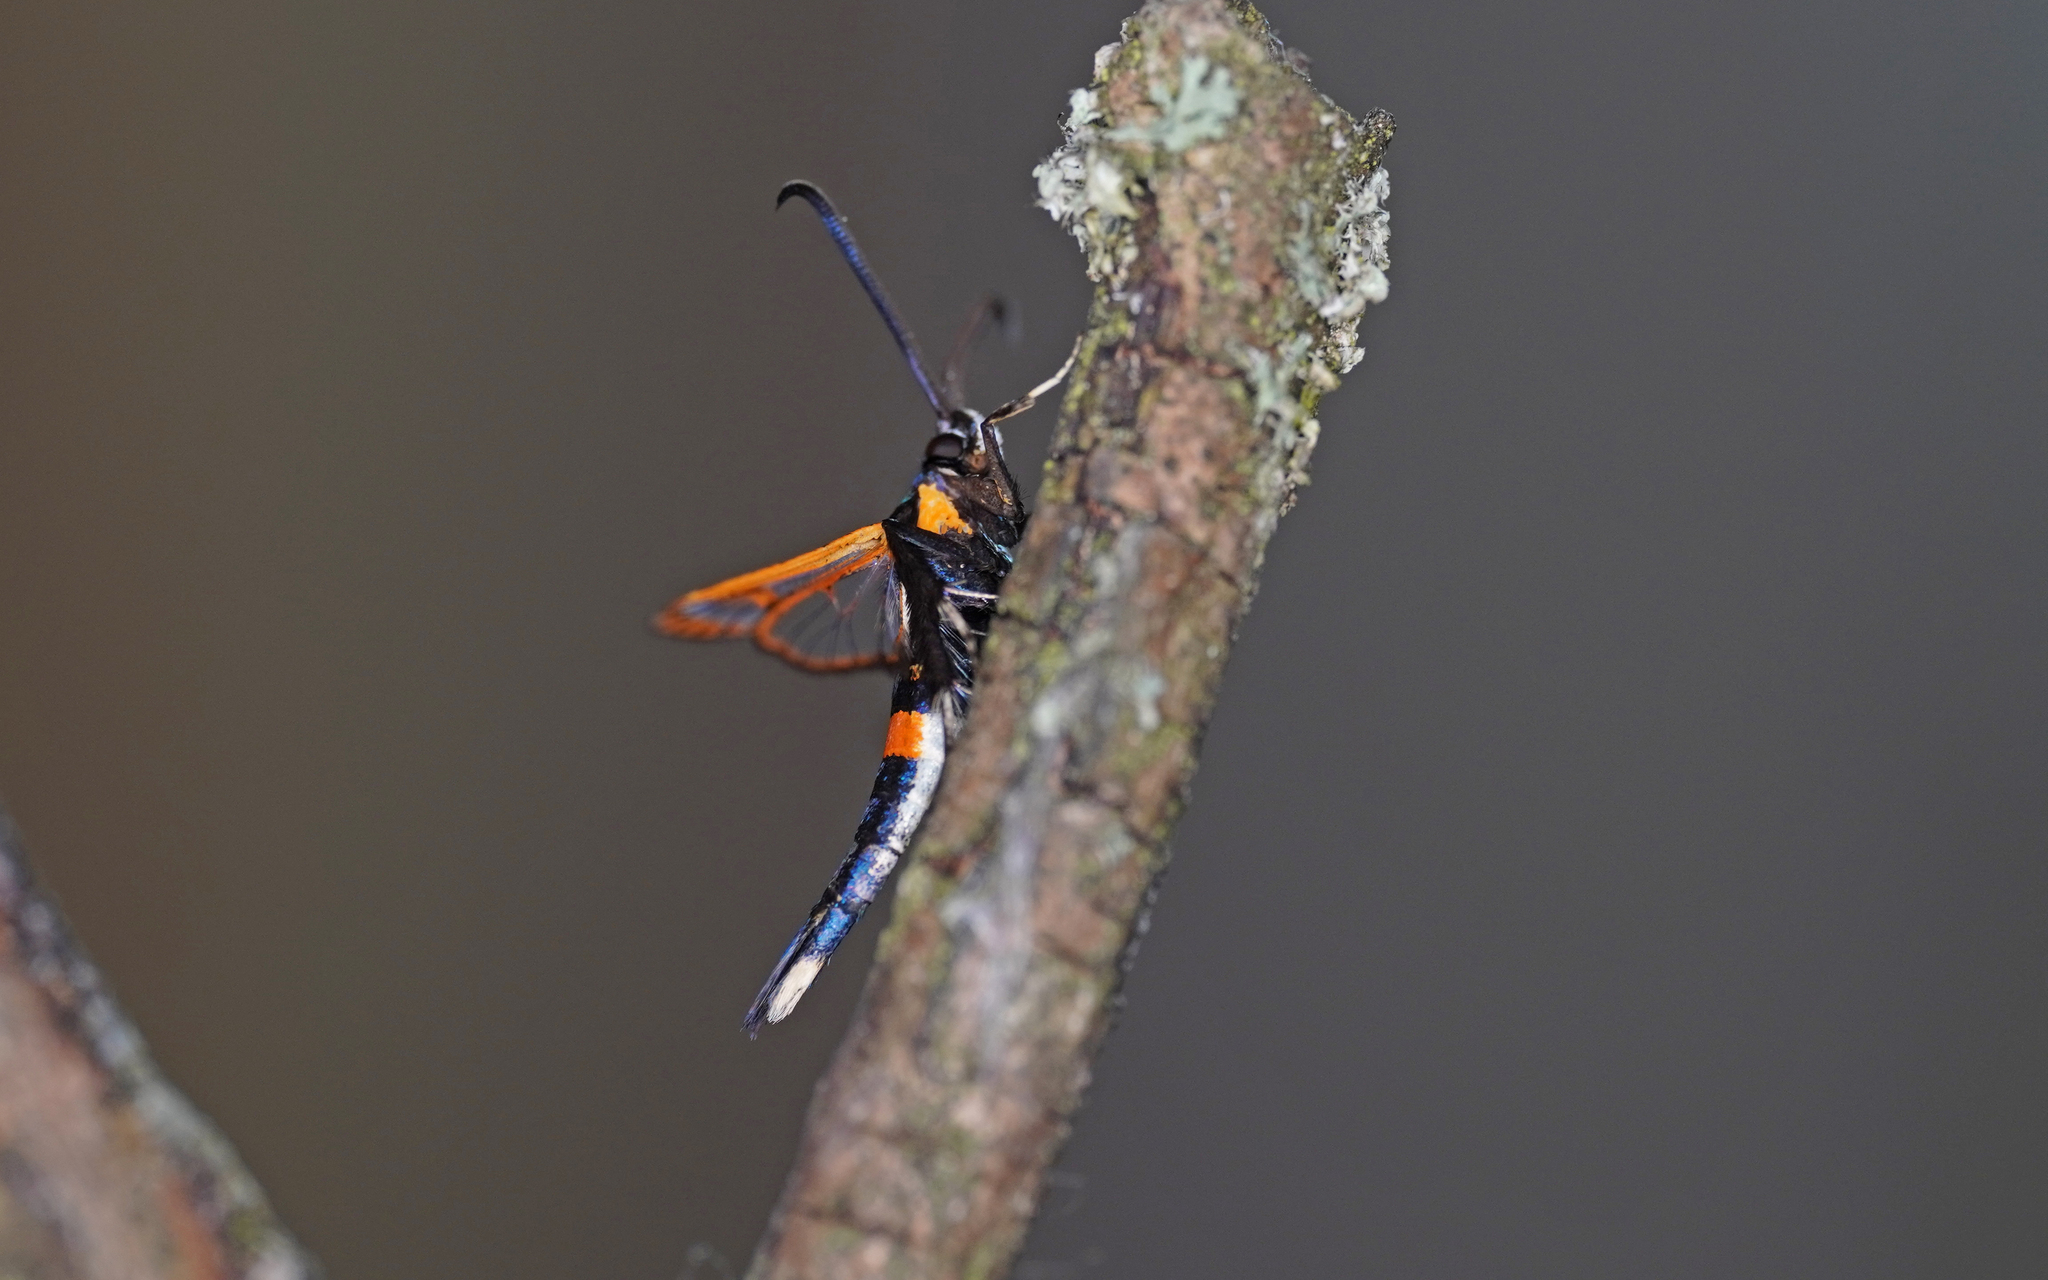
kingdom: Animalia
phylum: Arthropoda
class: Insecta
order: Lepidoptera
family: Sesiidae
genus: Synanthedon
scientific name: Synanthedon myopaeformis
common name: Red-belted clearwing
